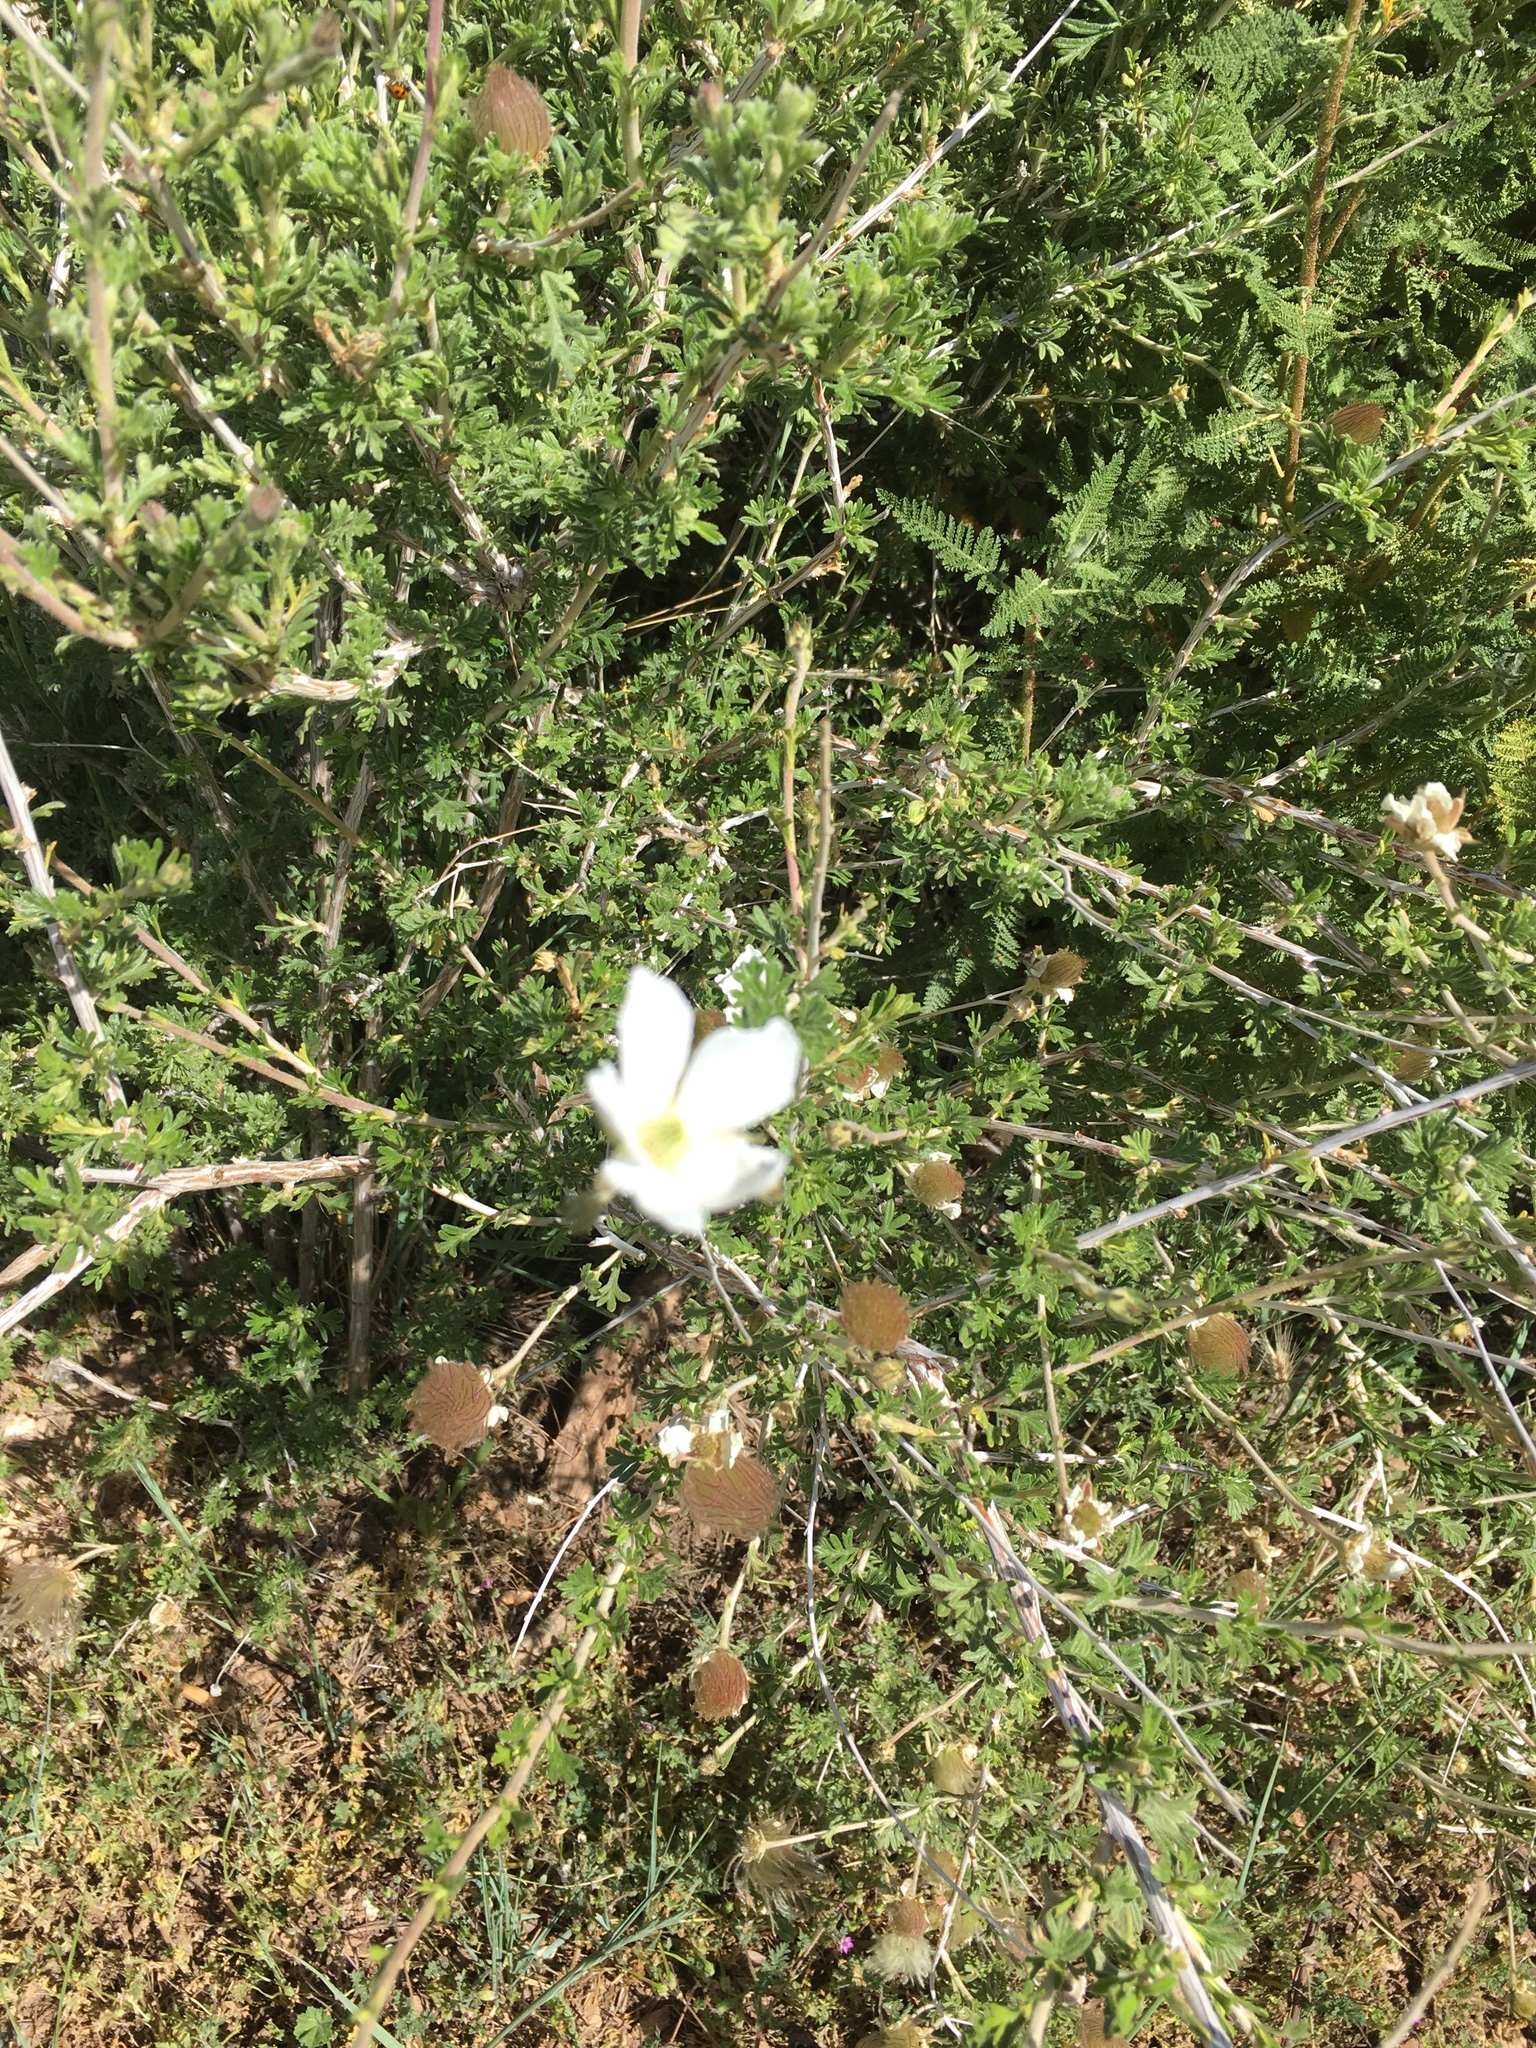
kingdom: Plantae
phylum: Tracheophyta
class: Magnoliopsida
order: Rosales
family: Rosaceae
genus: Fallugia
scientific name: Fallugia paradoxa
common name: Apache-plume
